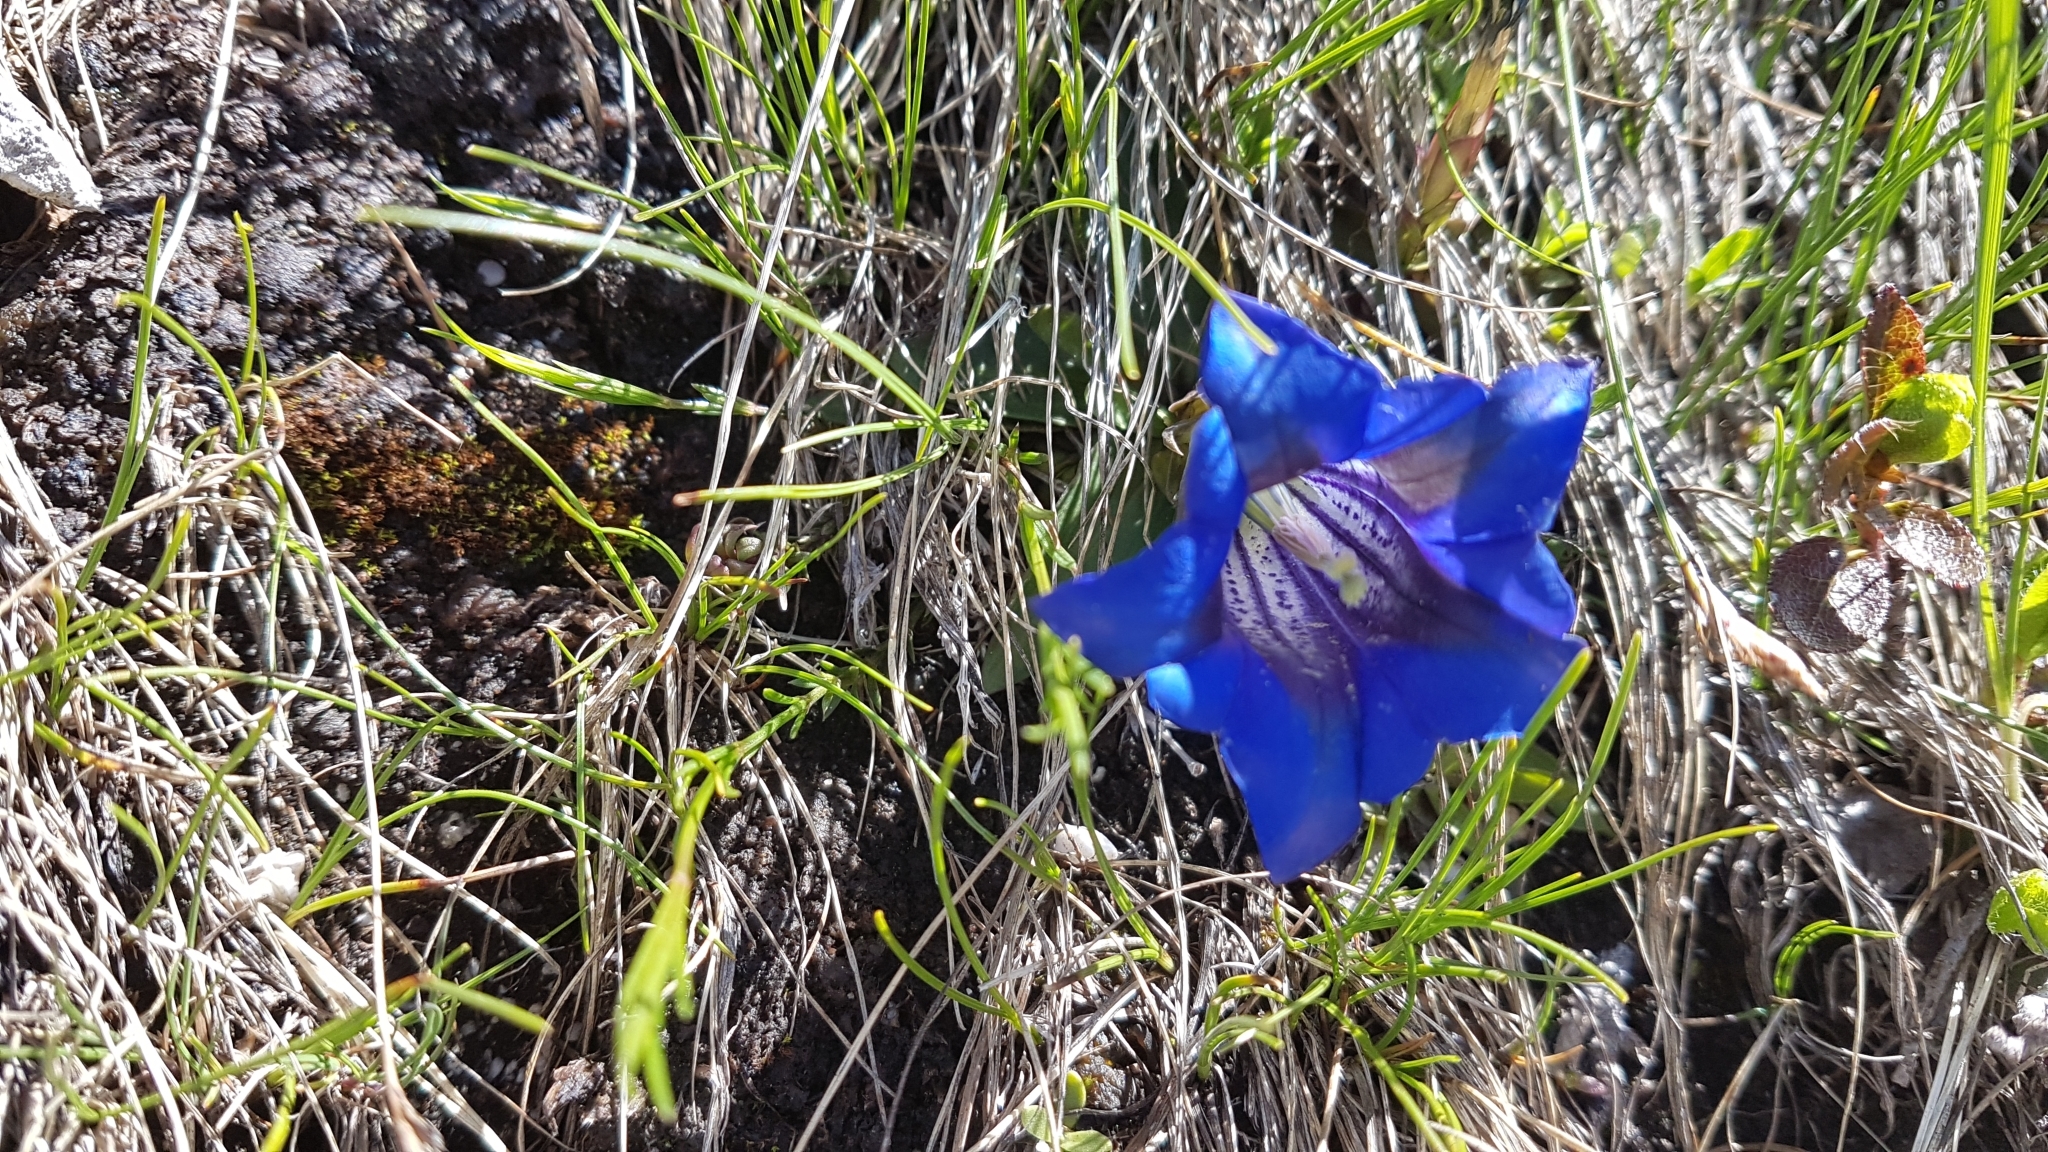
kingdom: Plantae
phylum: Tracheophyta
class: Magnoliopsida
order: Gentianales
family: Gentianaceae
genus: Gentiana
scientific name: Gentiana clusii
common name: Trumpet gentian
